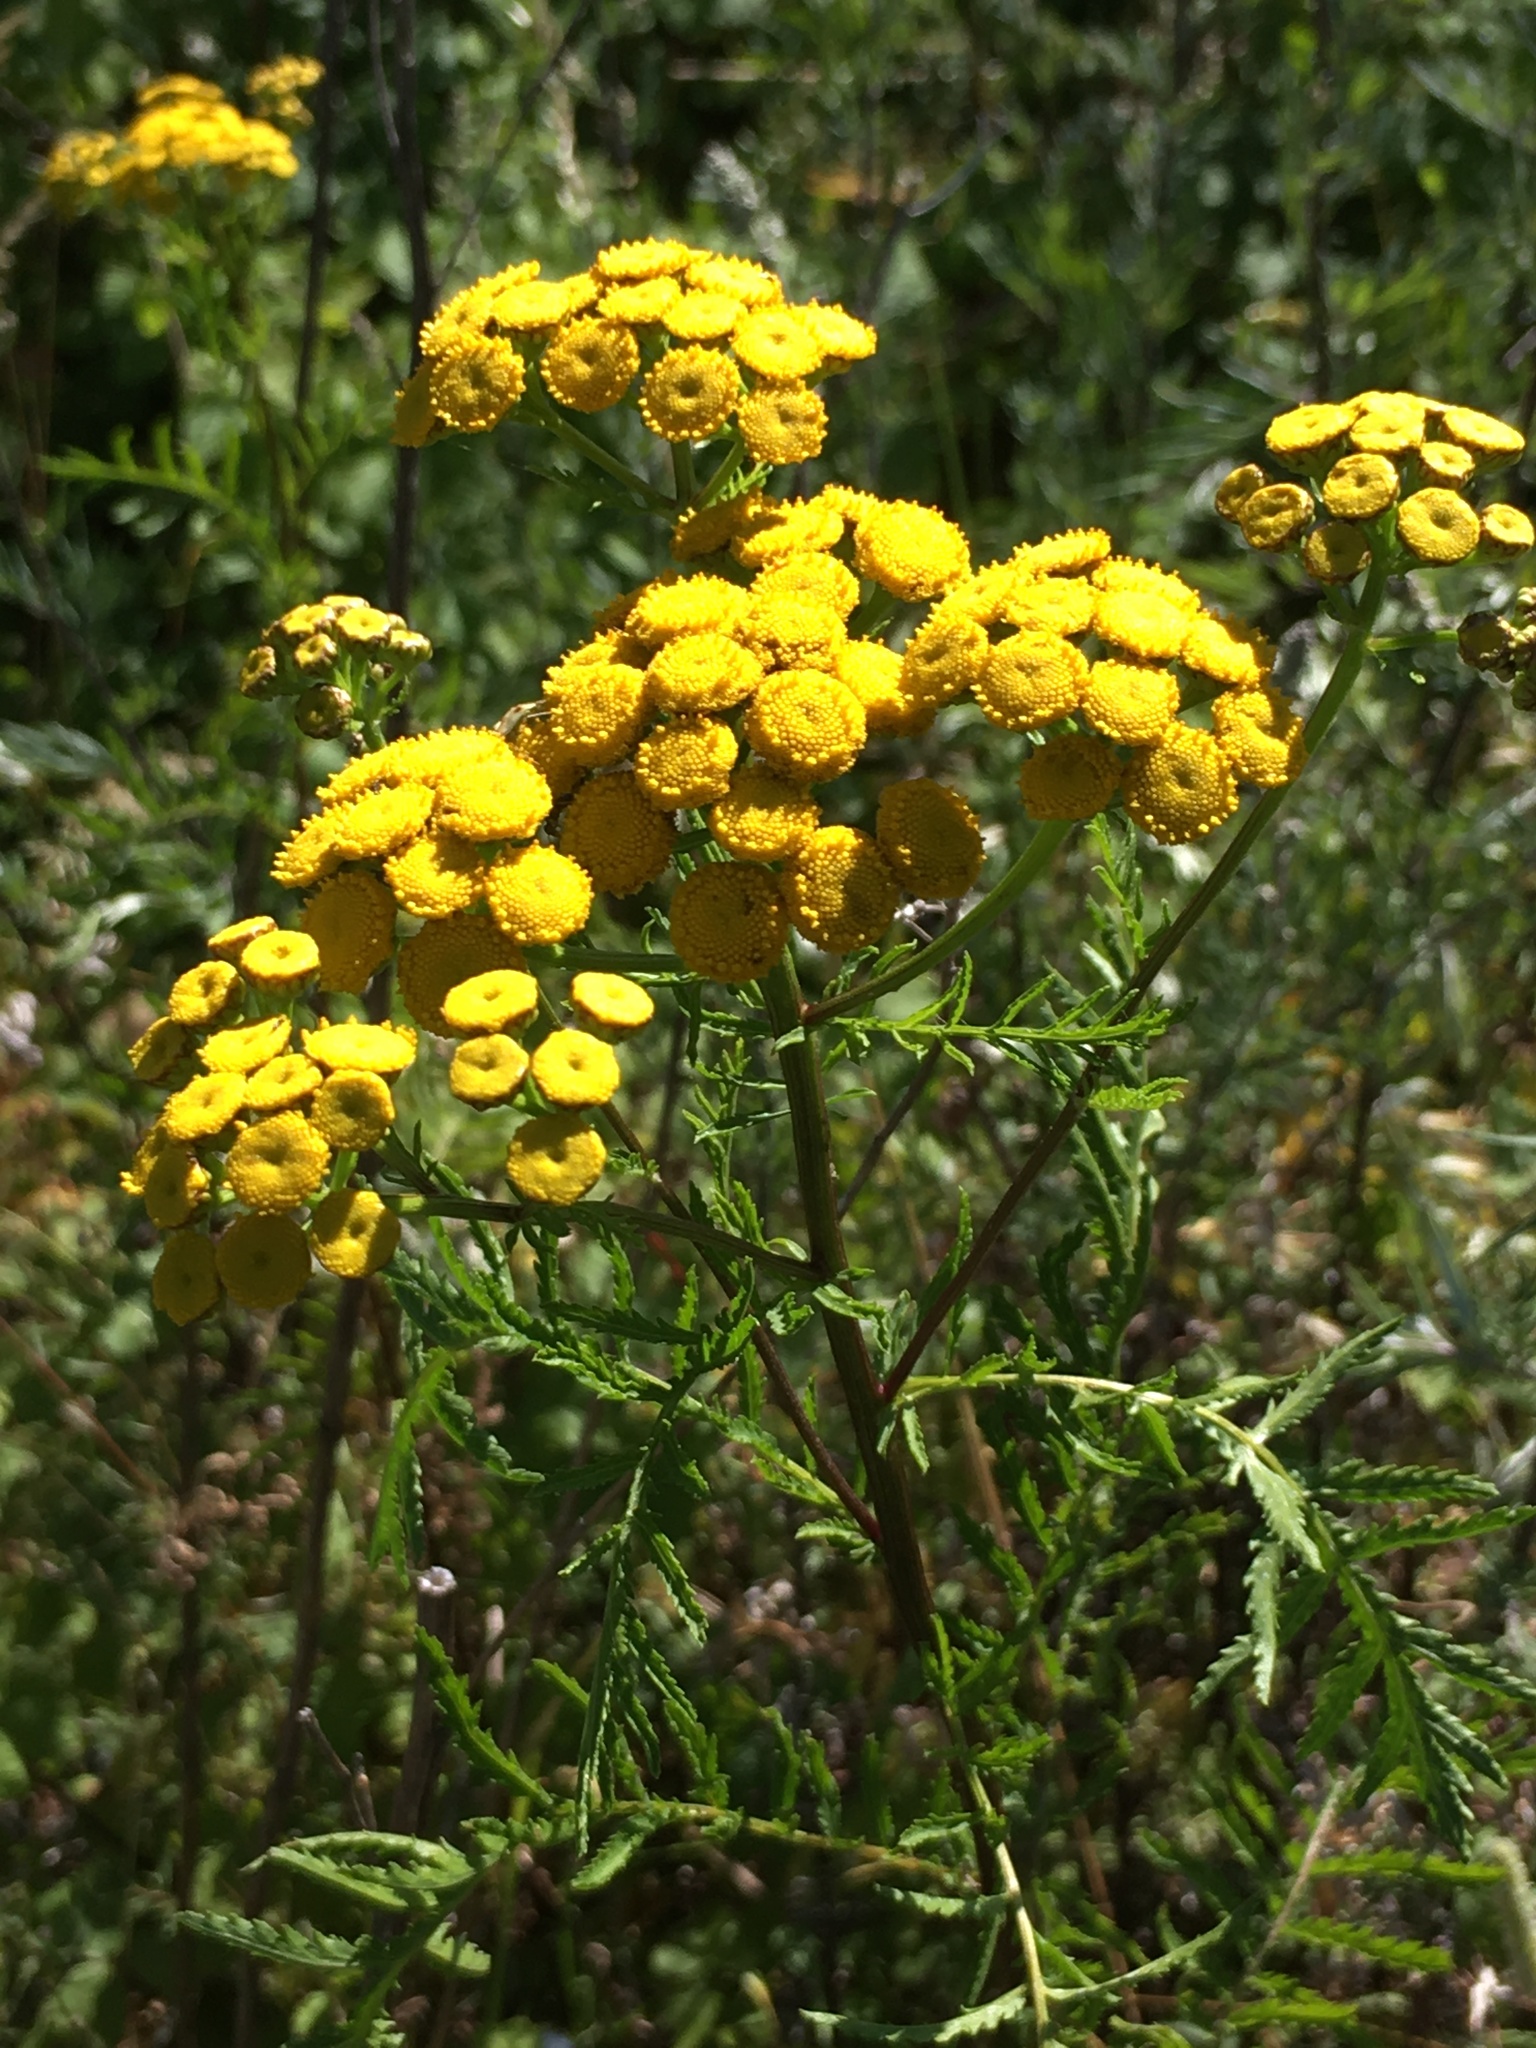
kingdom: Plantae
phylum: Tracheophyta
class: Magnoliopsida
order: Asterales
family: Asteraceae
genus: Tanacetum
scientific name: Tanacetum vulgare
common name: Common tansy
